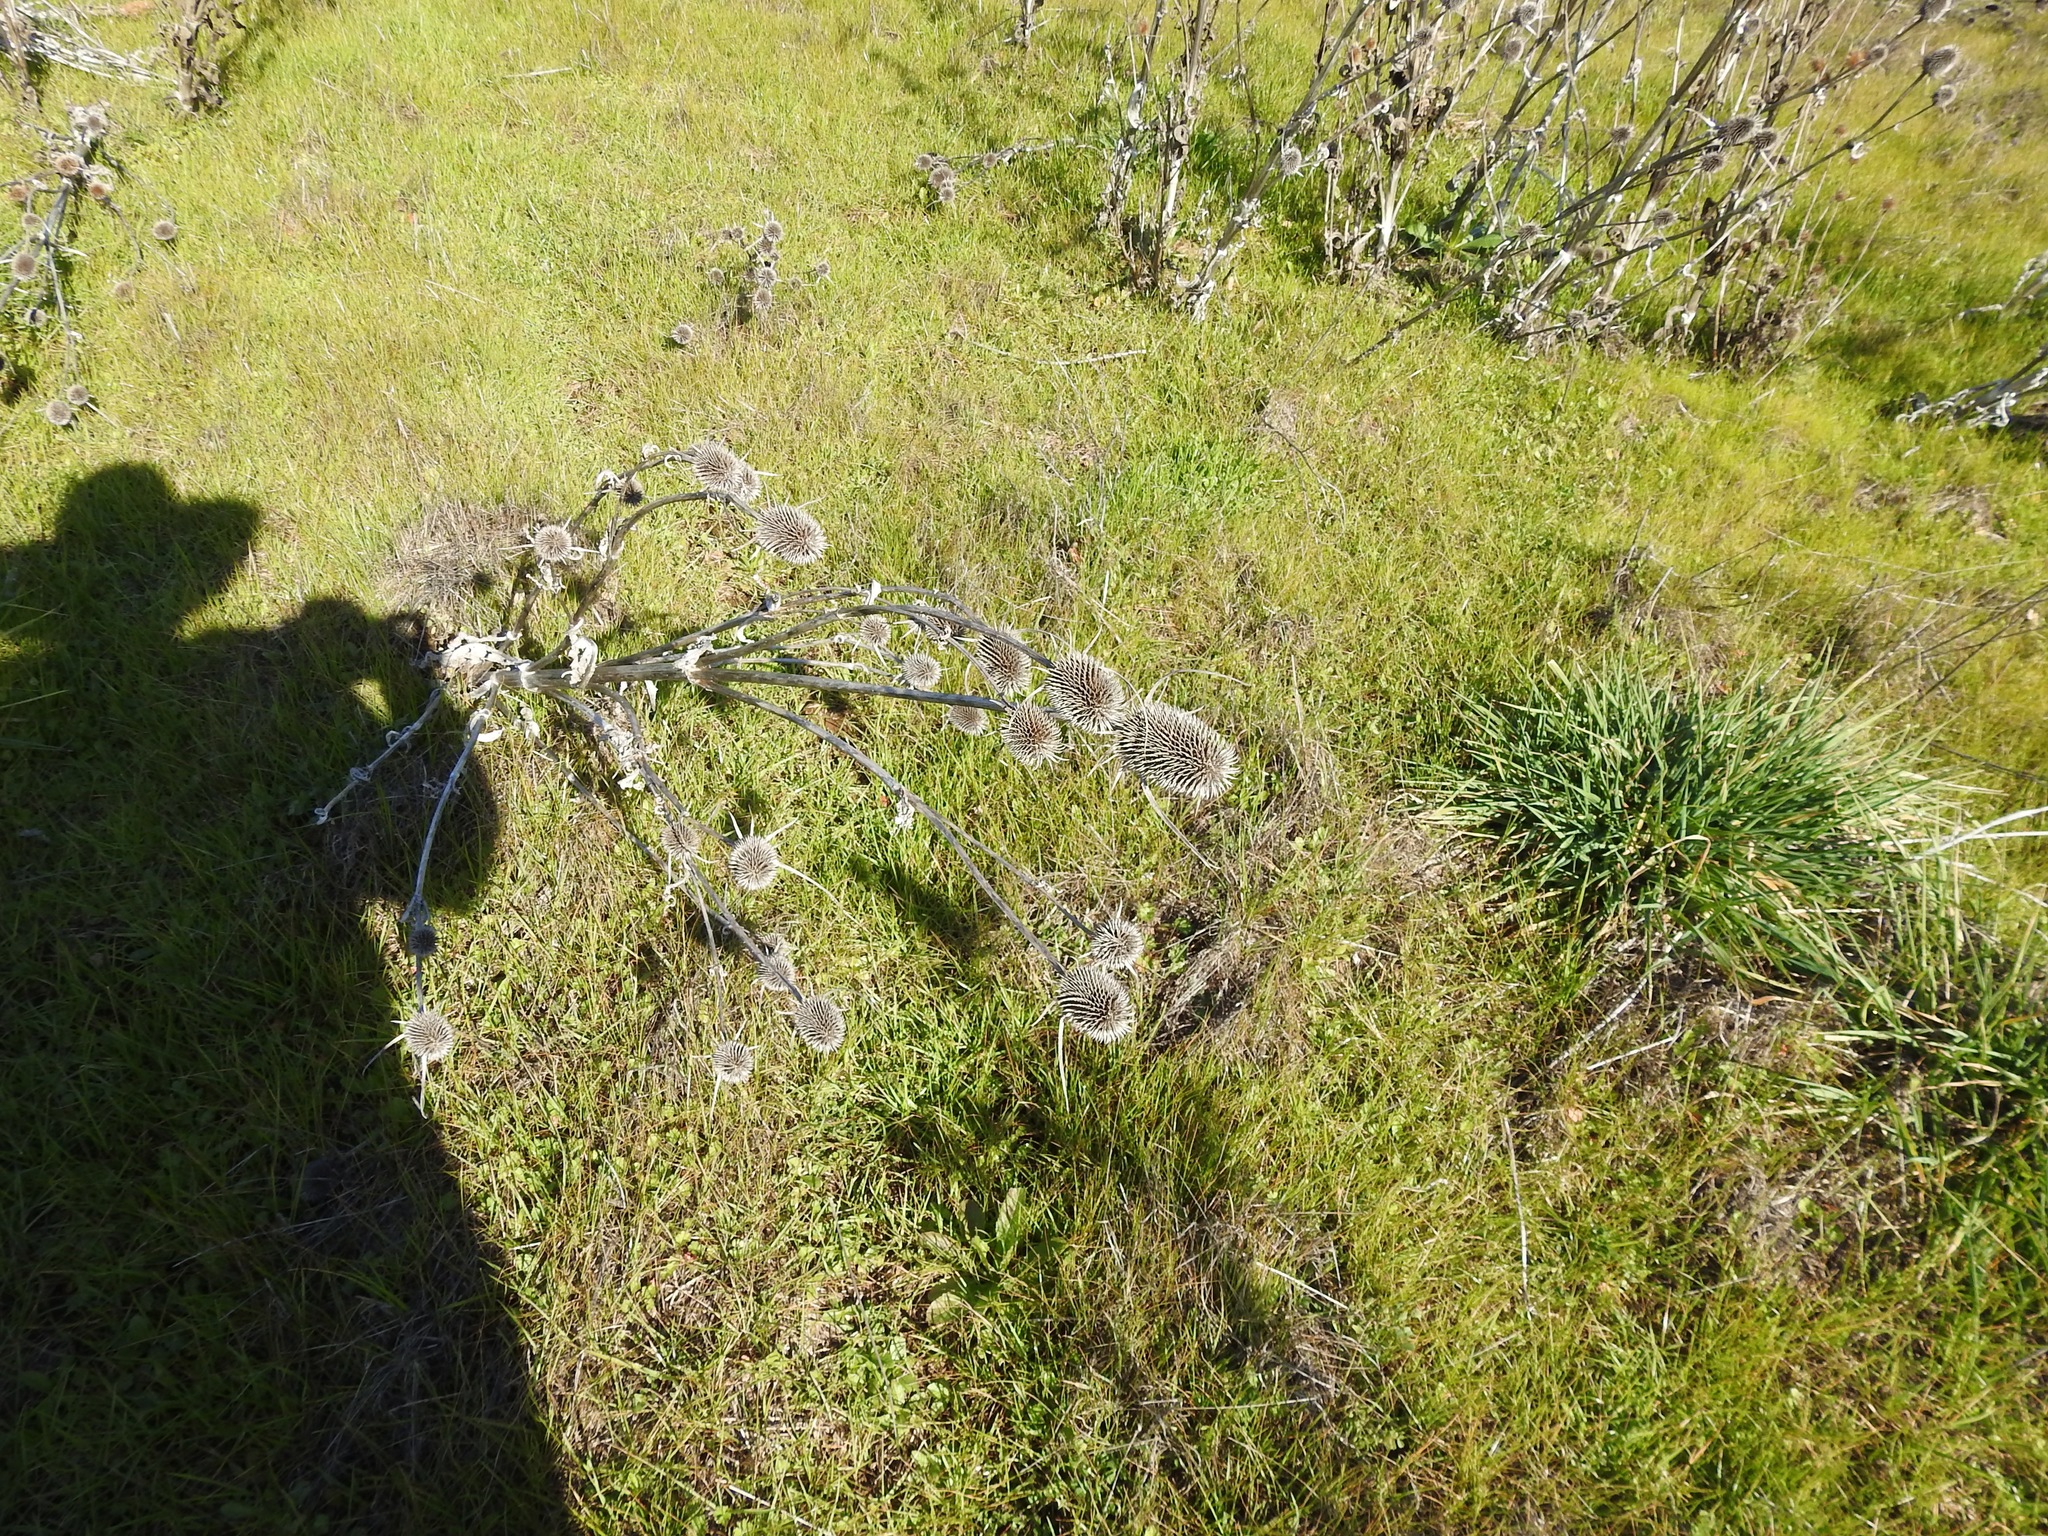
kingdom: Plantae
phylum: Tracheophyta
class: Magnoliopsida
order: Dipsacales
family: Caprifoliaceae
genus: Dipsacus
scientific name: Dipsacus sativus
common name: Fuller's teasel
